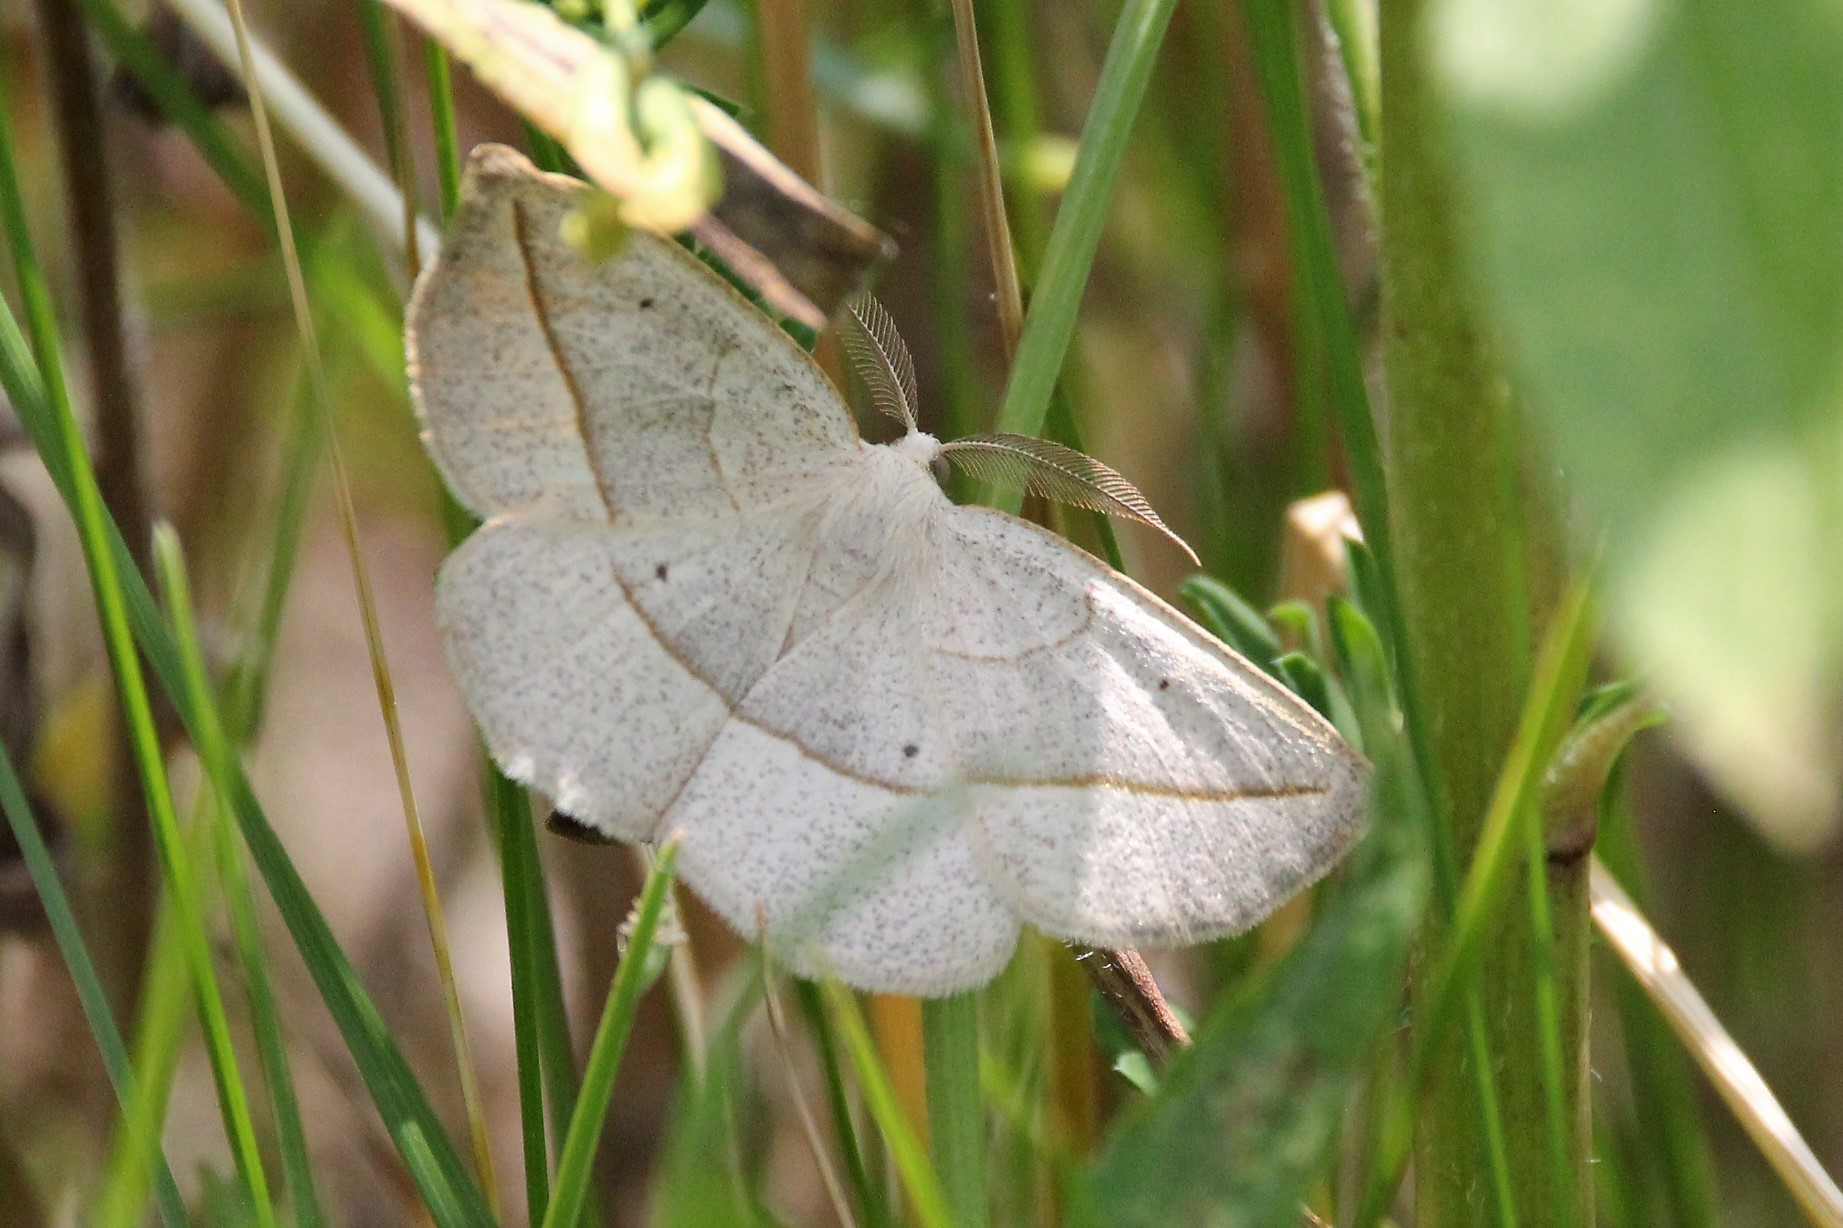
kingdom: Animalia
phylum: Arthropoda
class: Insecta
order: Lepidoptera
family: Geometridae
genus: Eusarca
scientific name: Eusarca confusaria
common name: Confused eusarca
